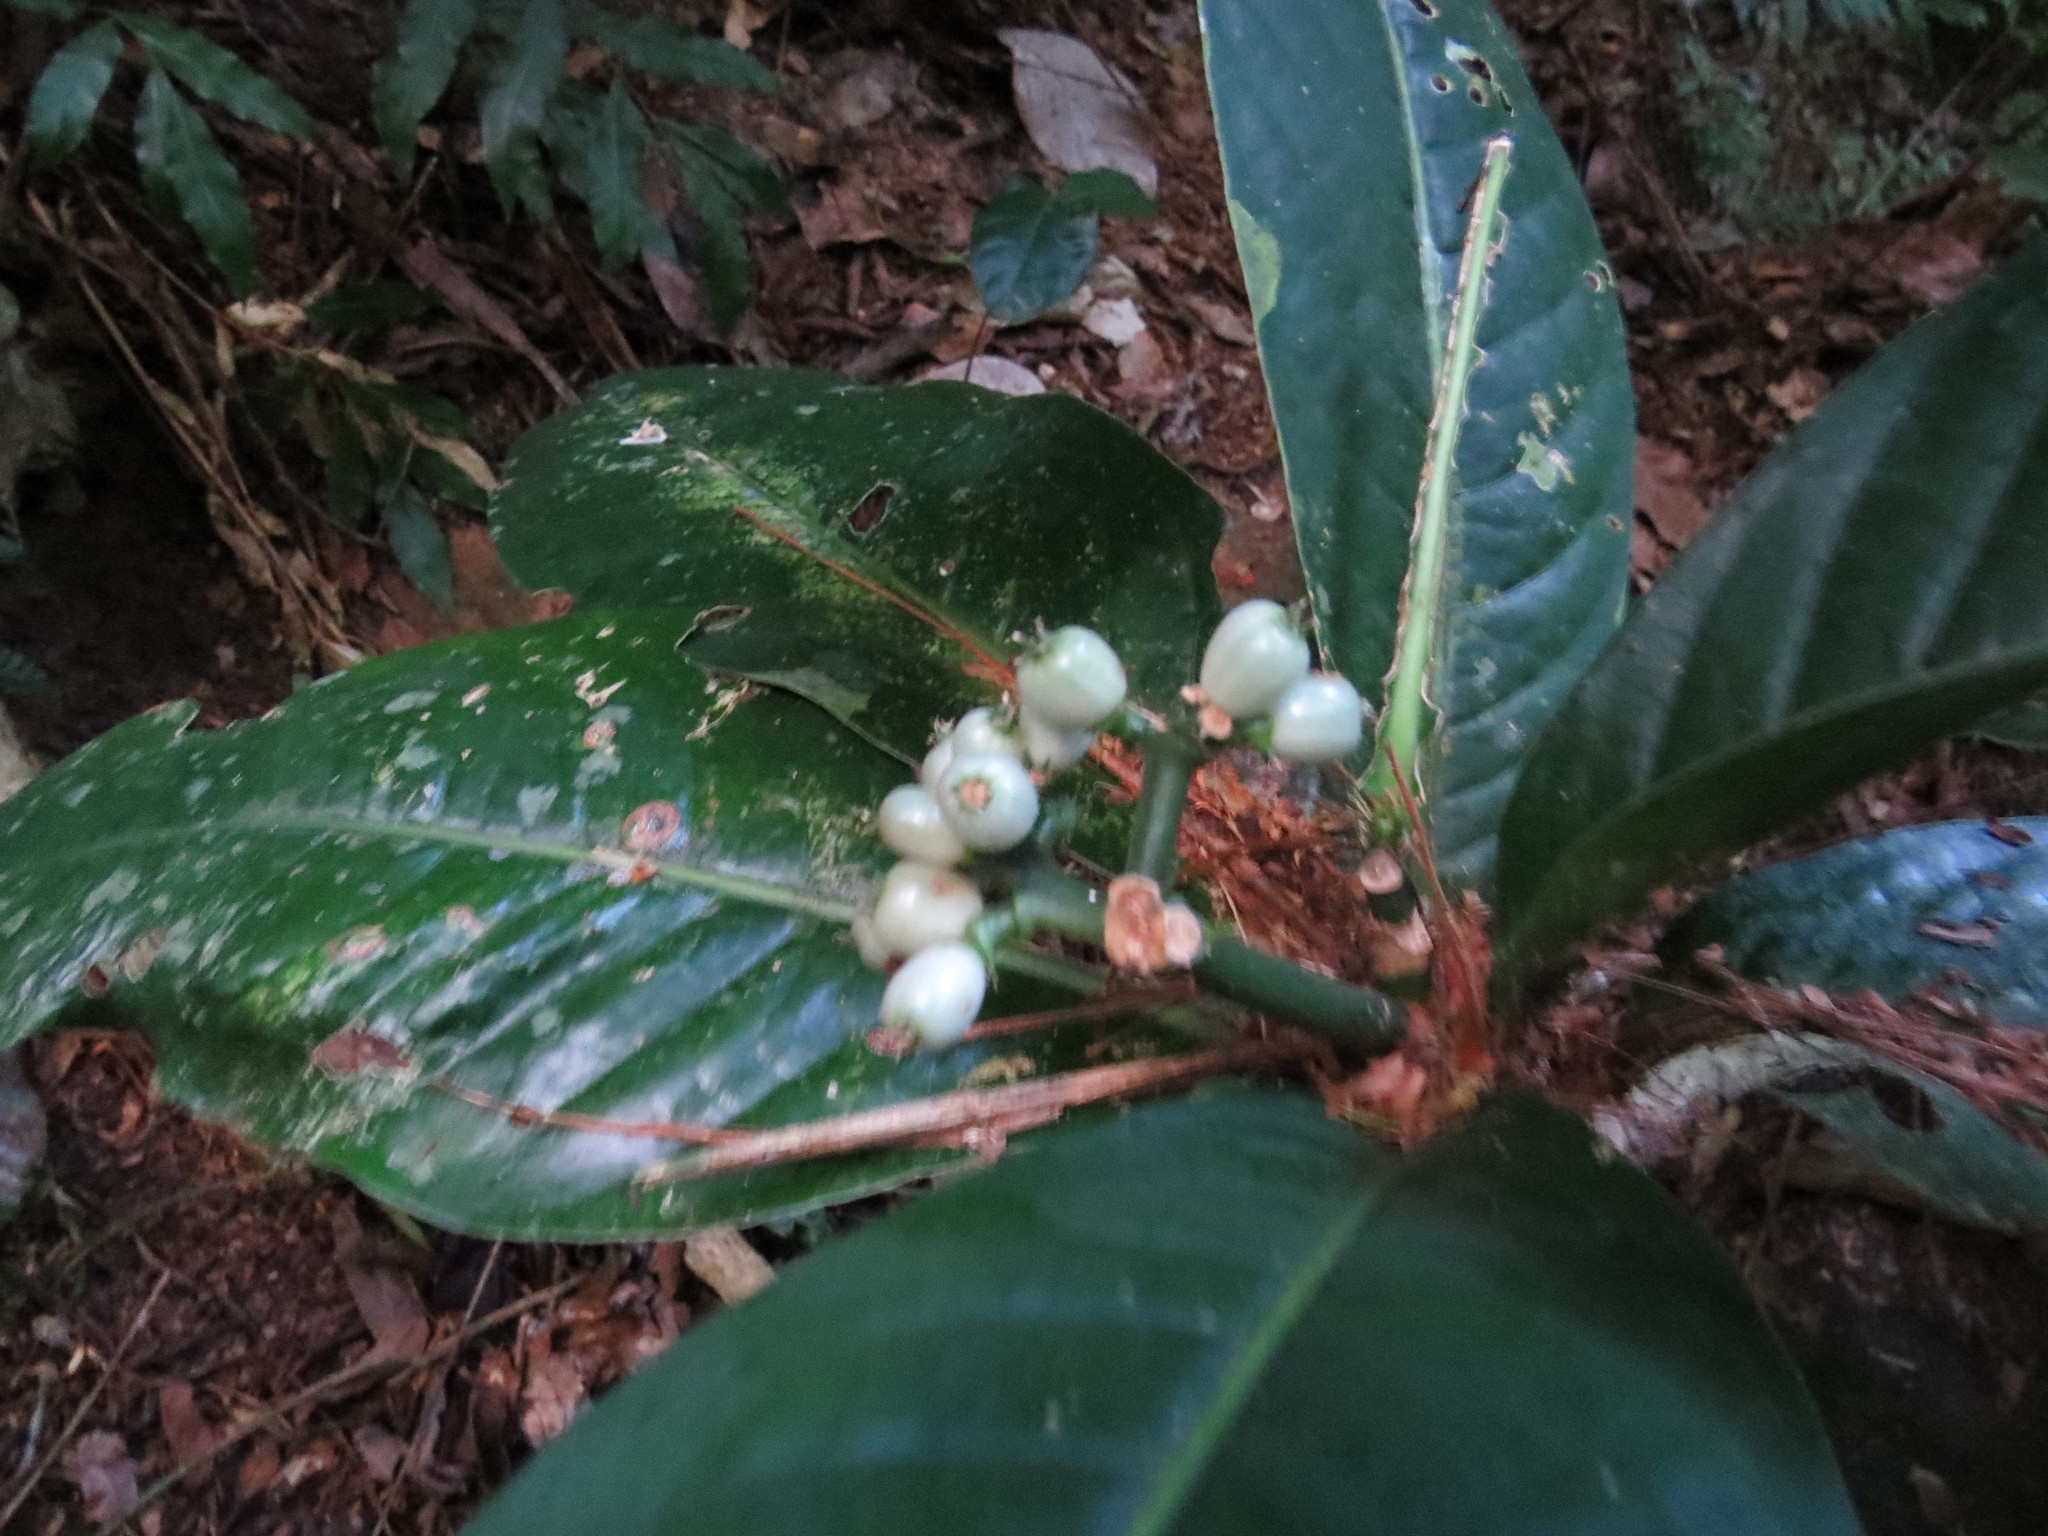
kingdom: Plantae
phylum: Tracheophyta
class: Magnoliopsida
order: Gentianales
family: Rubiaceae
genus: Rudgea
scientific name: Rudgea macrophylla
